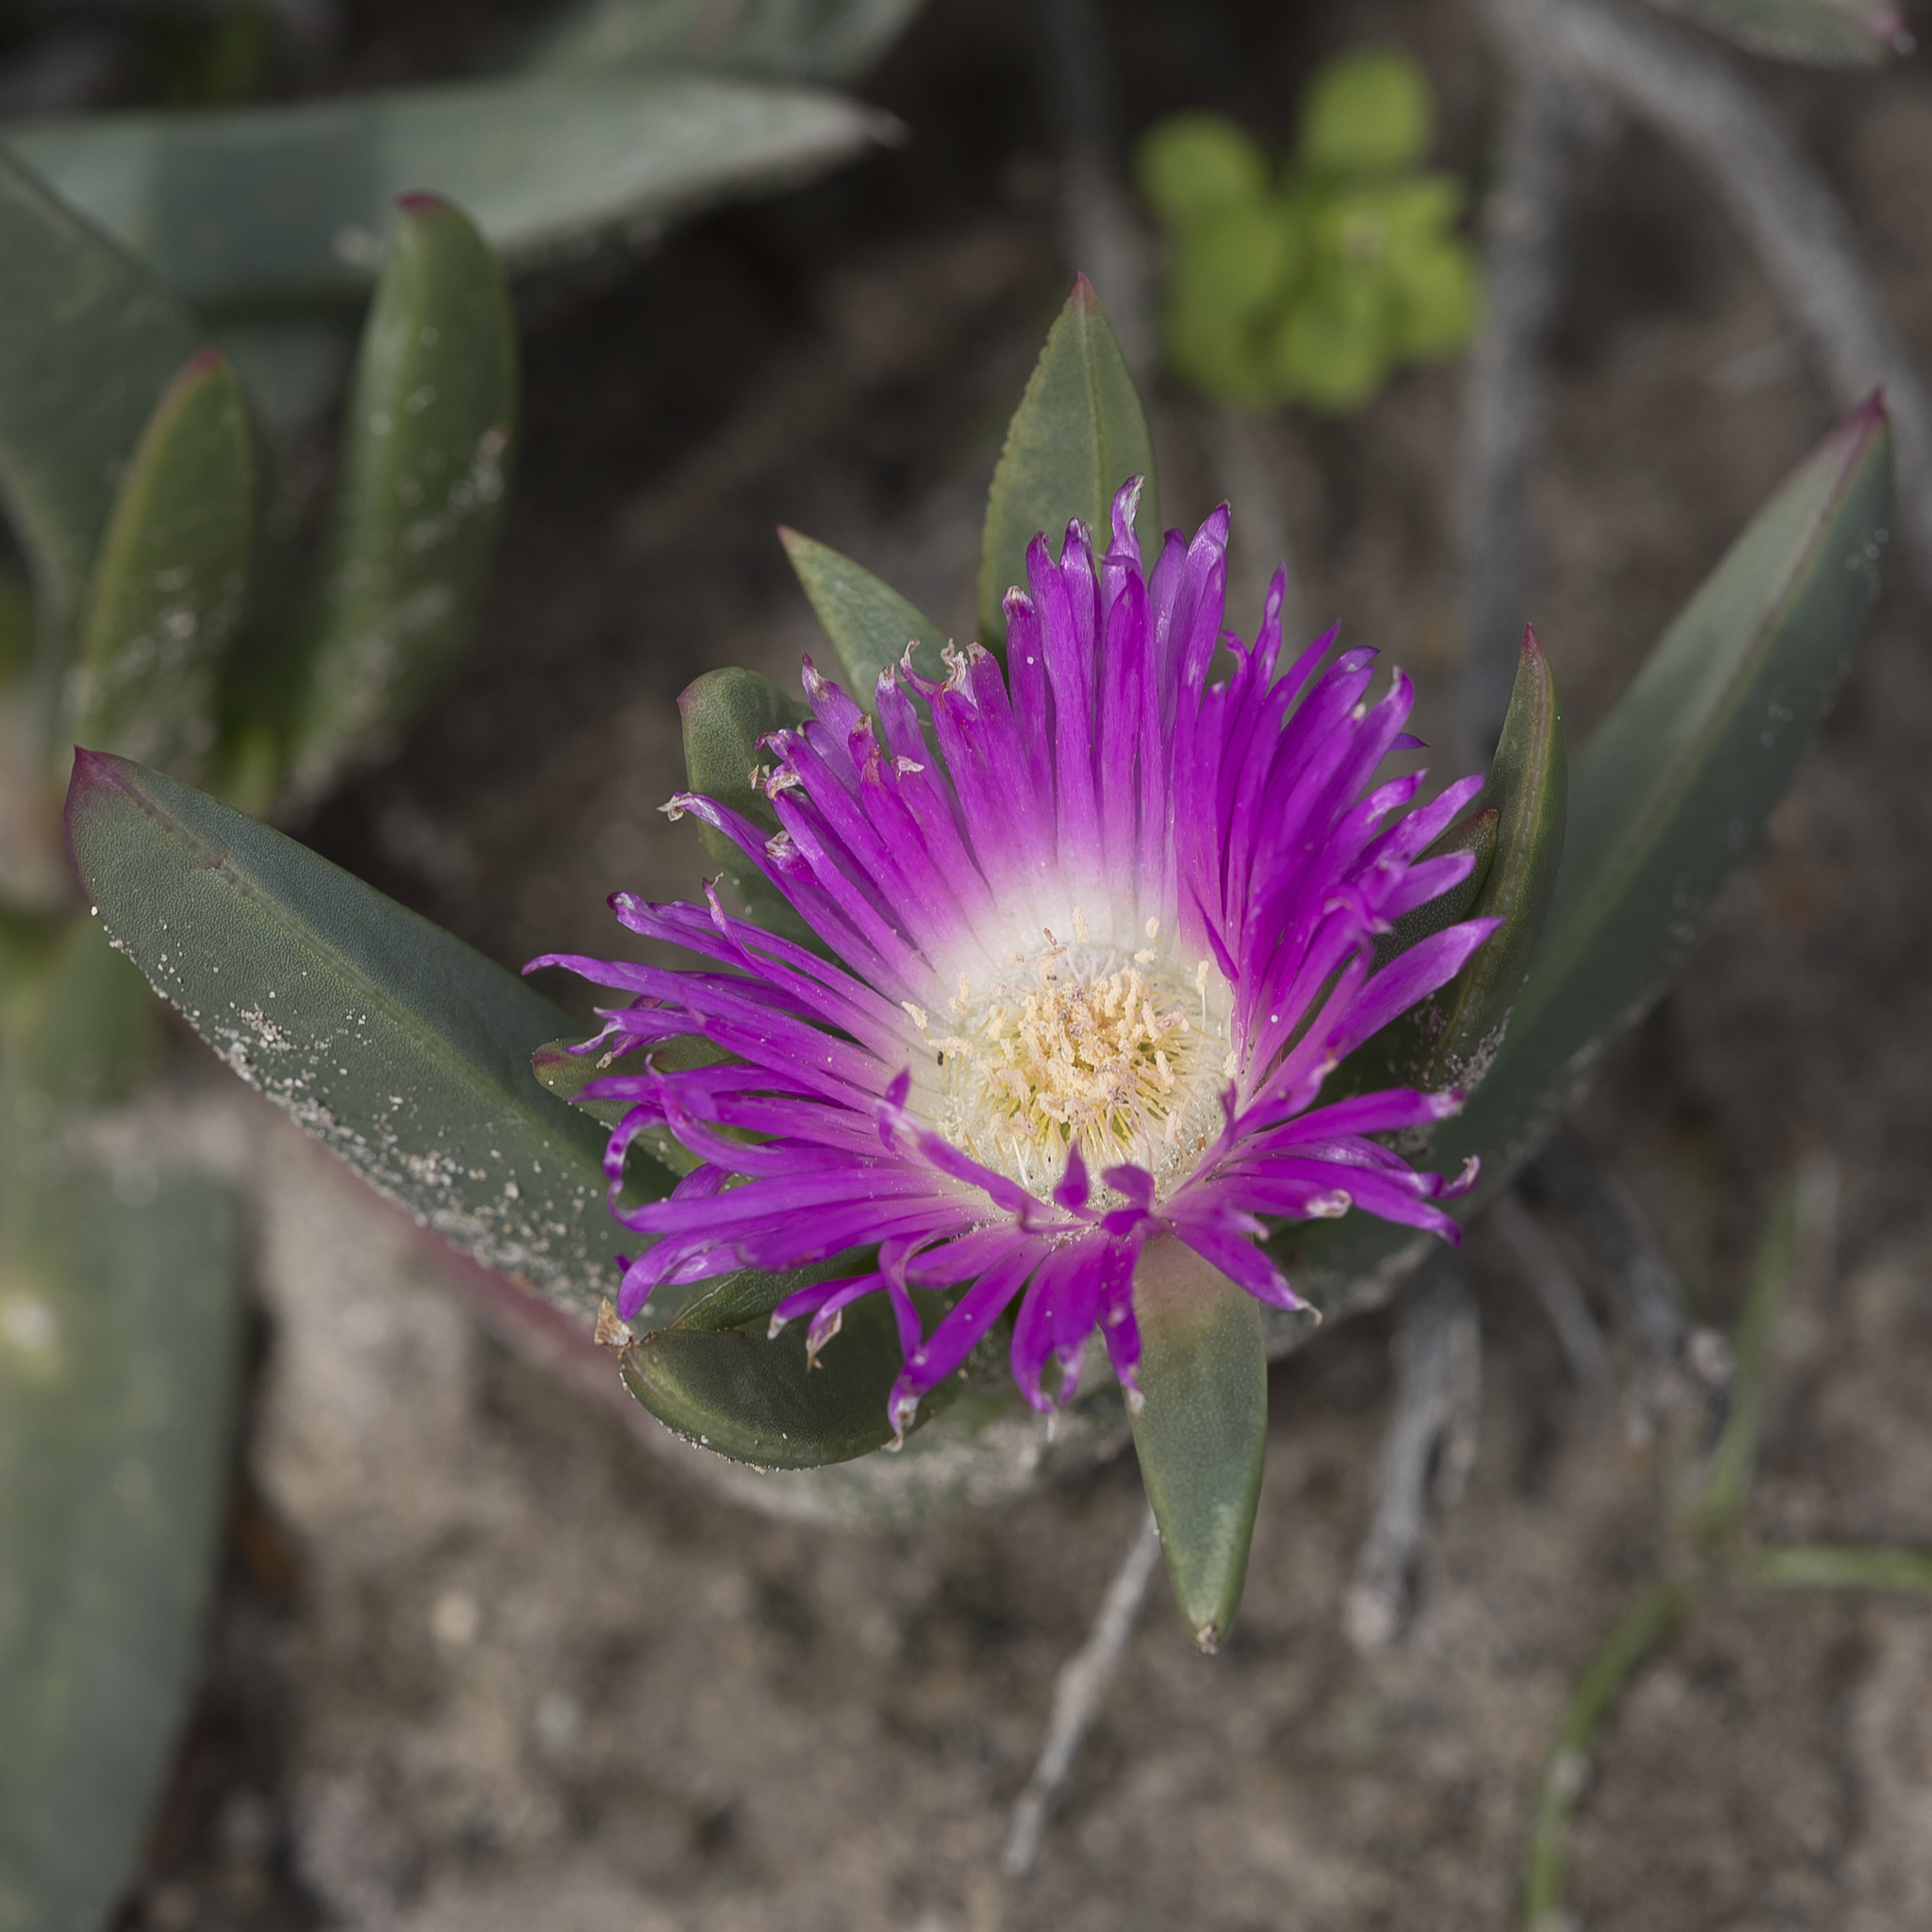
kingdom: Plantae
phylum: Tracheophyta
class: Magnoliopsida
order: Caryophyllales
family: Aizoaceae
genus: Carpobrotus
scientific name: Carpobrotus rossii
